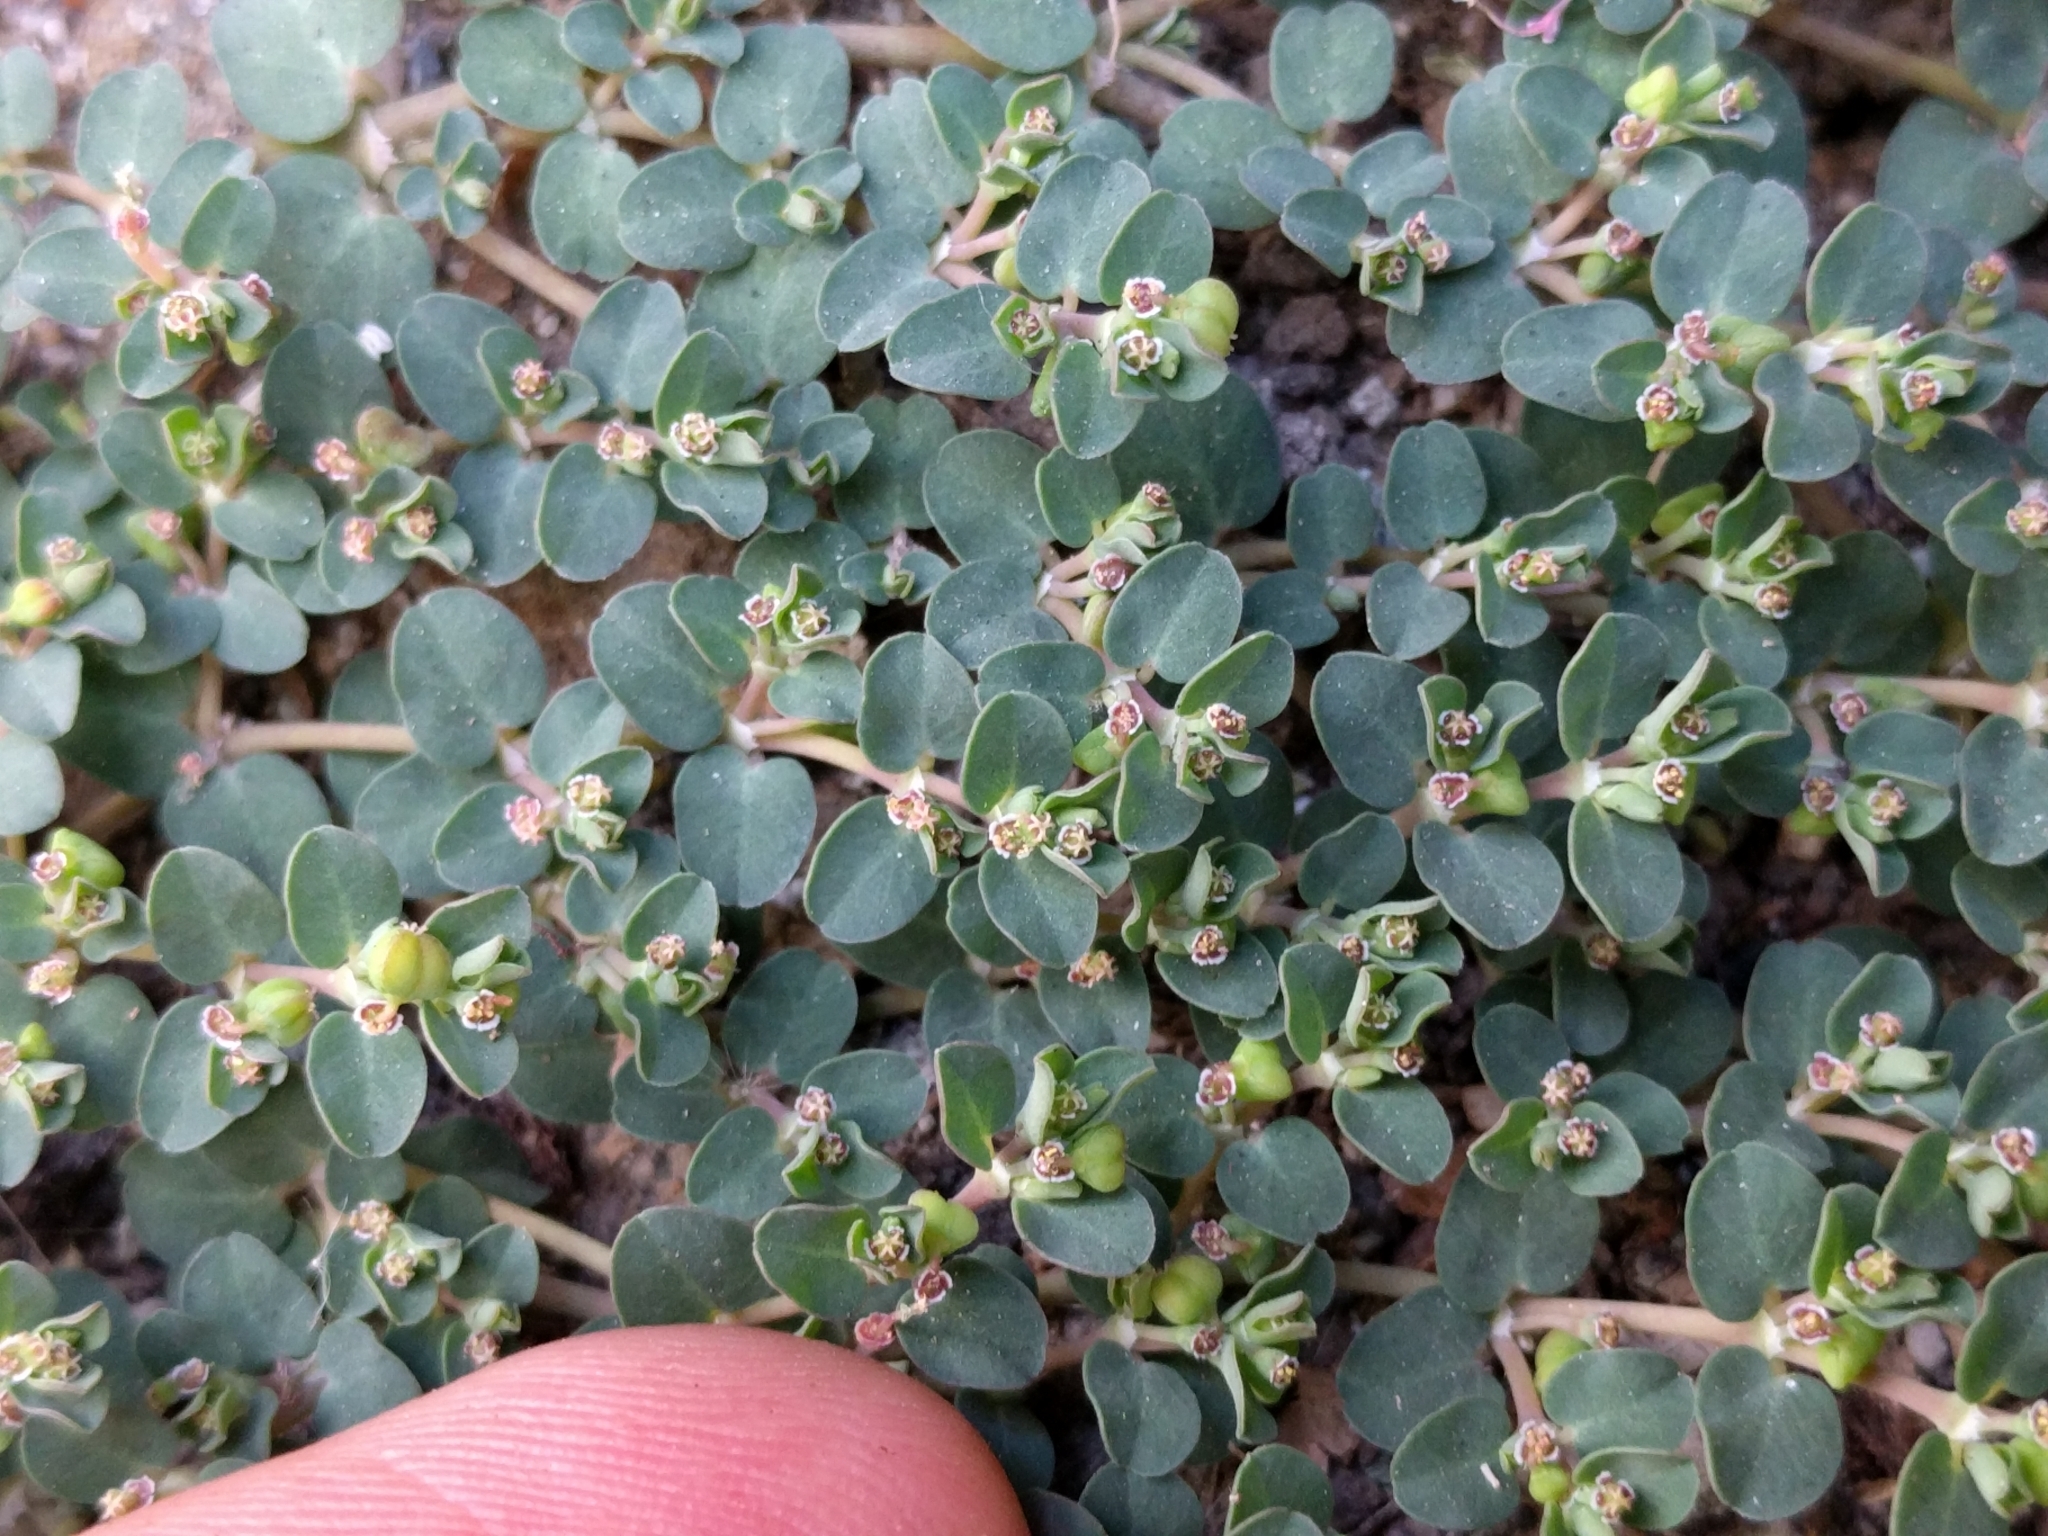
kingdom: Plantae
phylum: Tracheophyta
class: Magnoliopsida
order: Malpighiales
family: Euphorbiaceae
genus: Euphorbia
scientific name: Euphorbia serpens
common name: Matted sandmat
